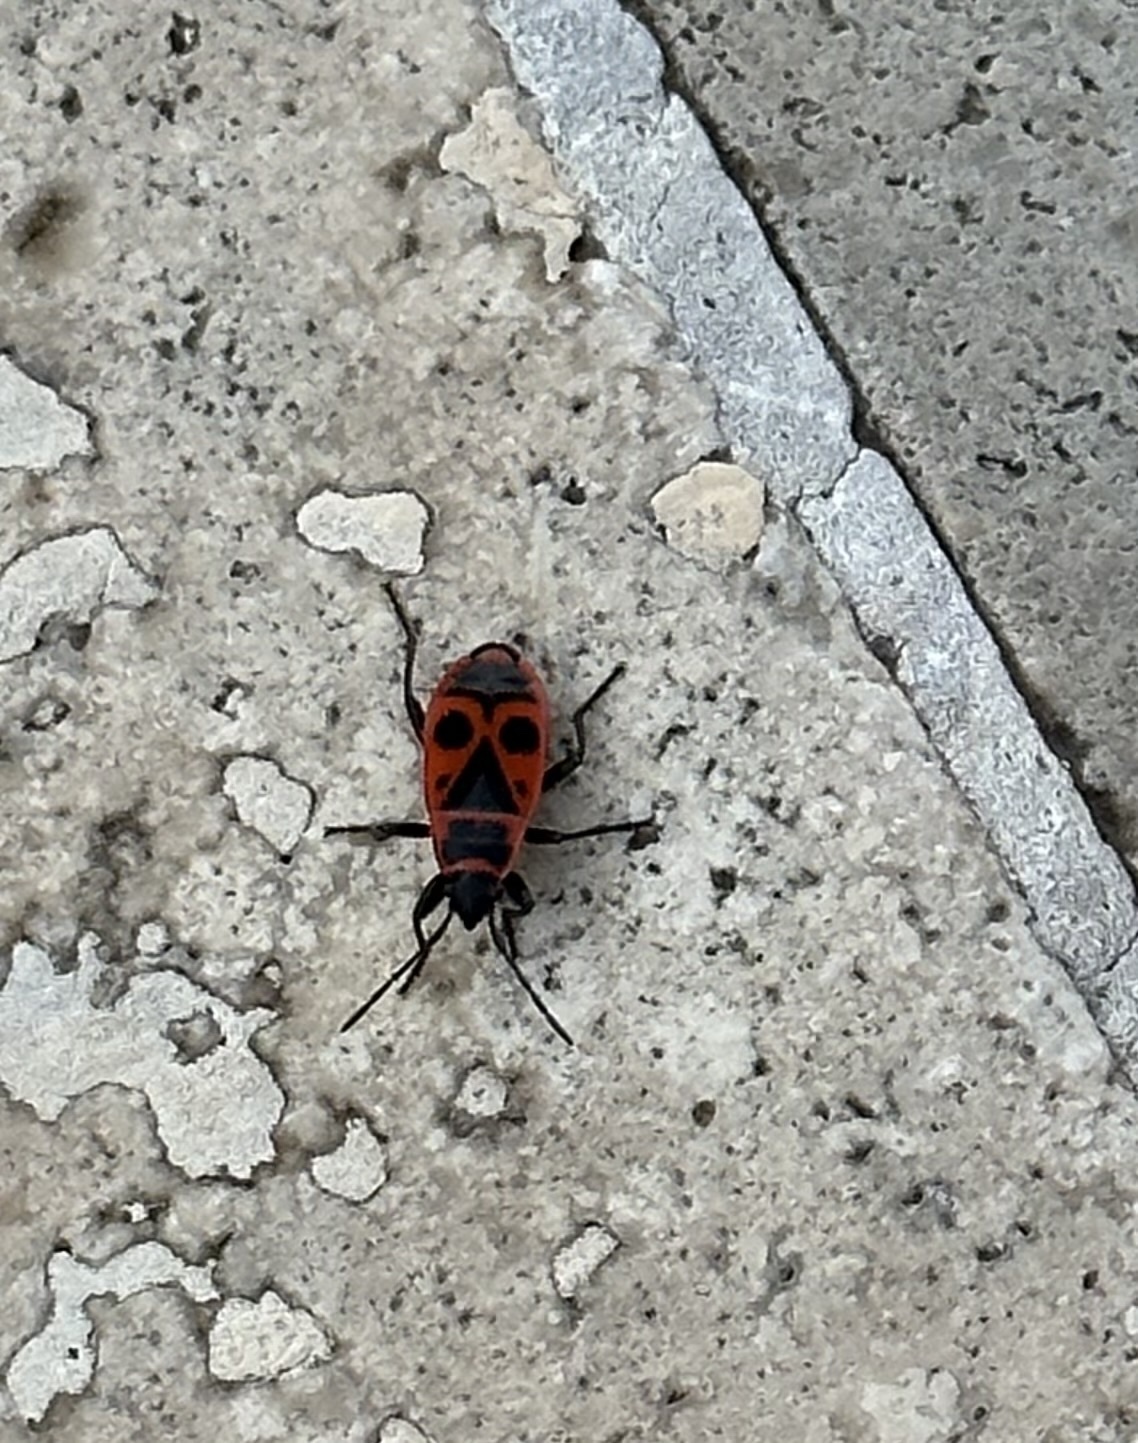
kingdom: Animalia
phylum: Arthropoda
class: Insecta
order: Hemiptera
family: Pyrrhocoridae
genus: Pyrrhocoris
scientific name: Pyrrhocoris apterus
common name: Firebug
